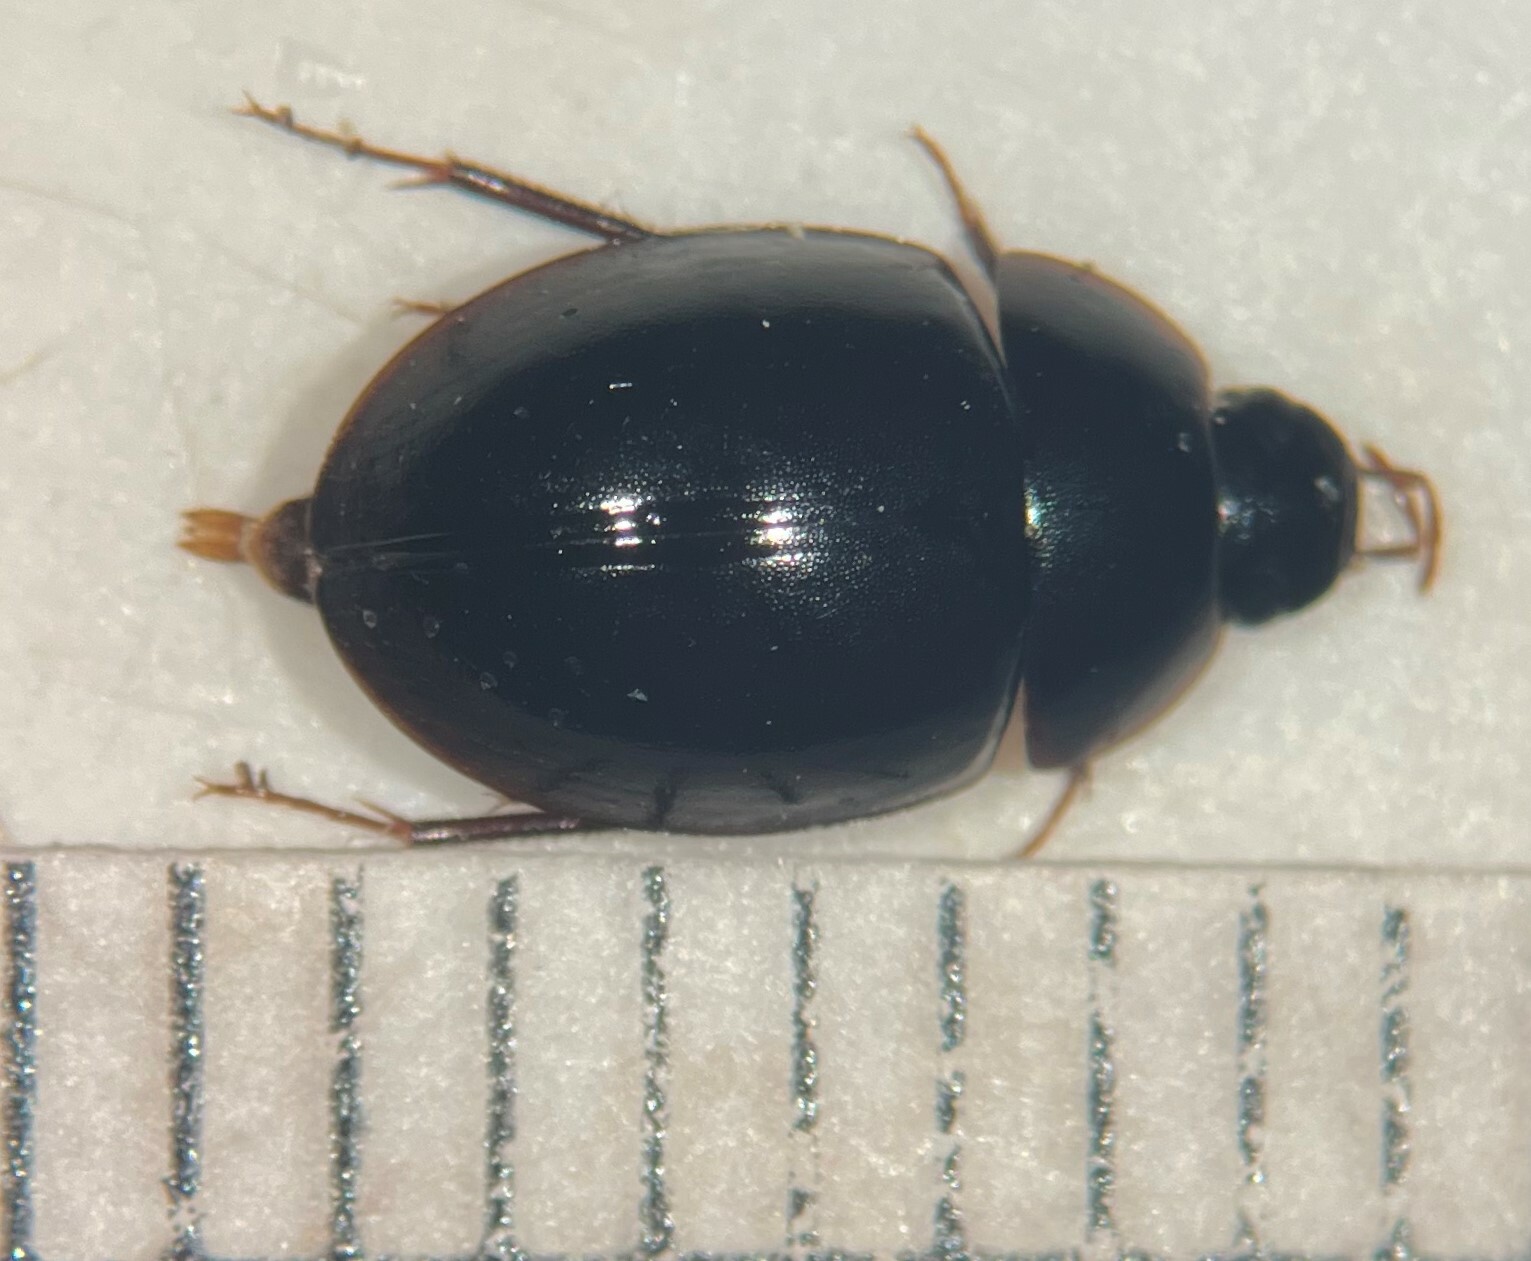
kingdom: Animalia
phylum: Arthropoda
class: Insecta
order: Coleoptera
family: Hydrophilidae
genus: Cymbiodyta
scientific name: Cymbiodyta rotunda
